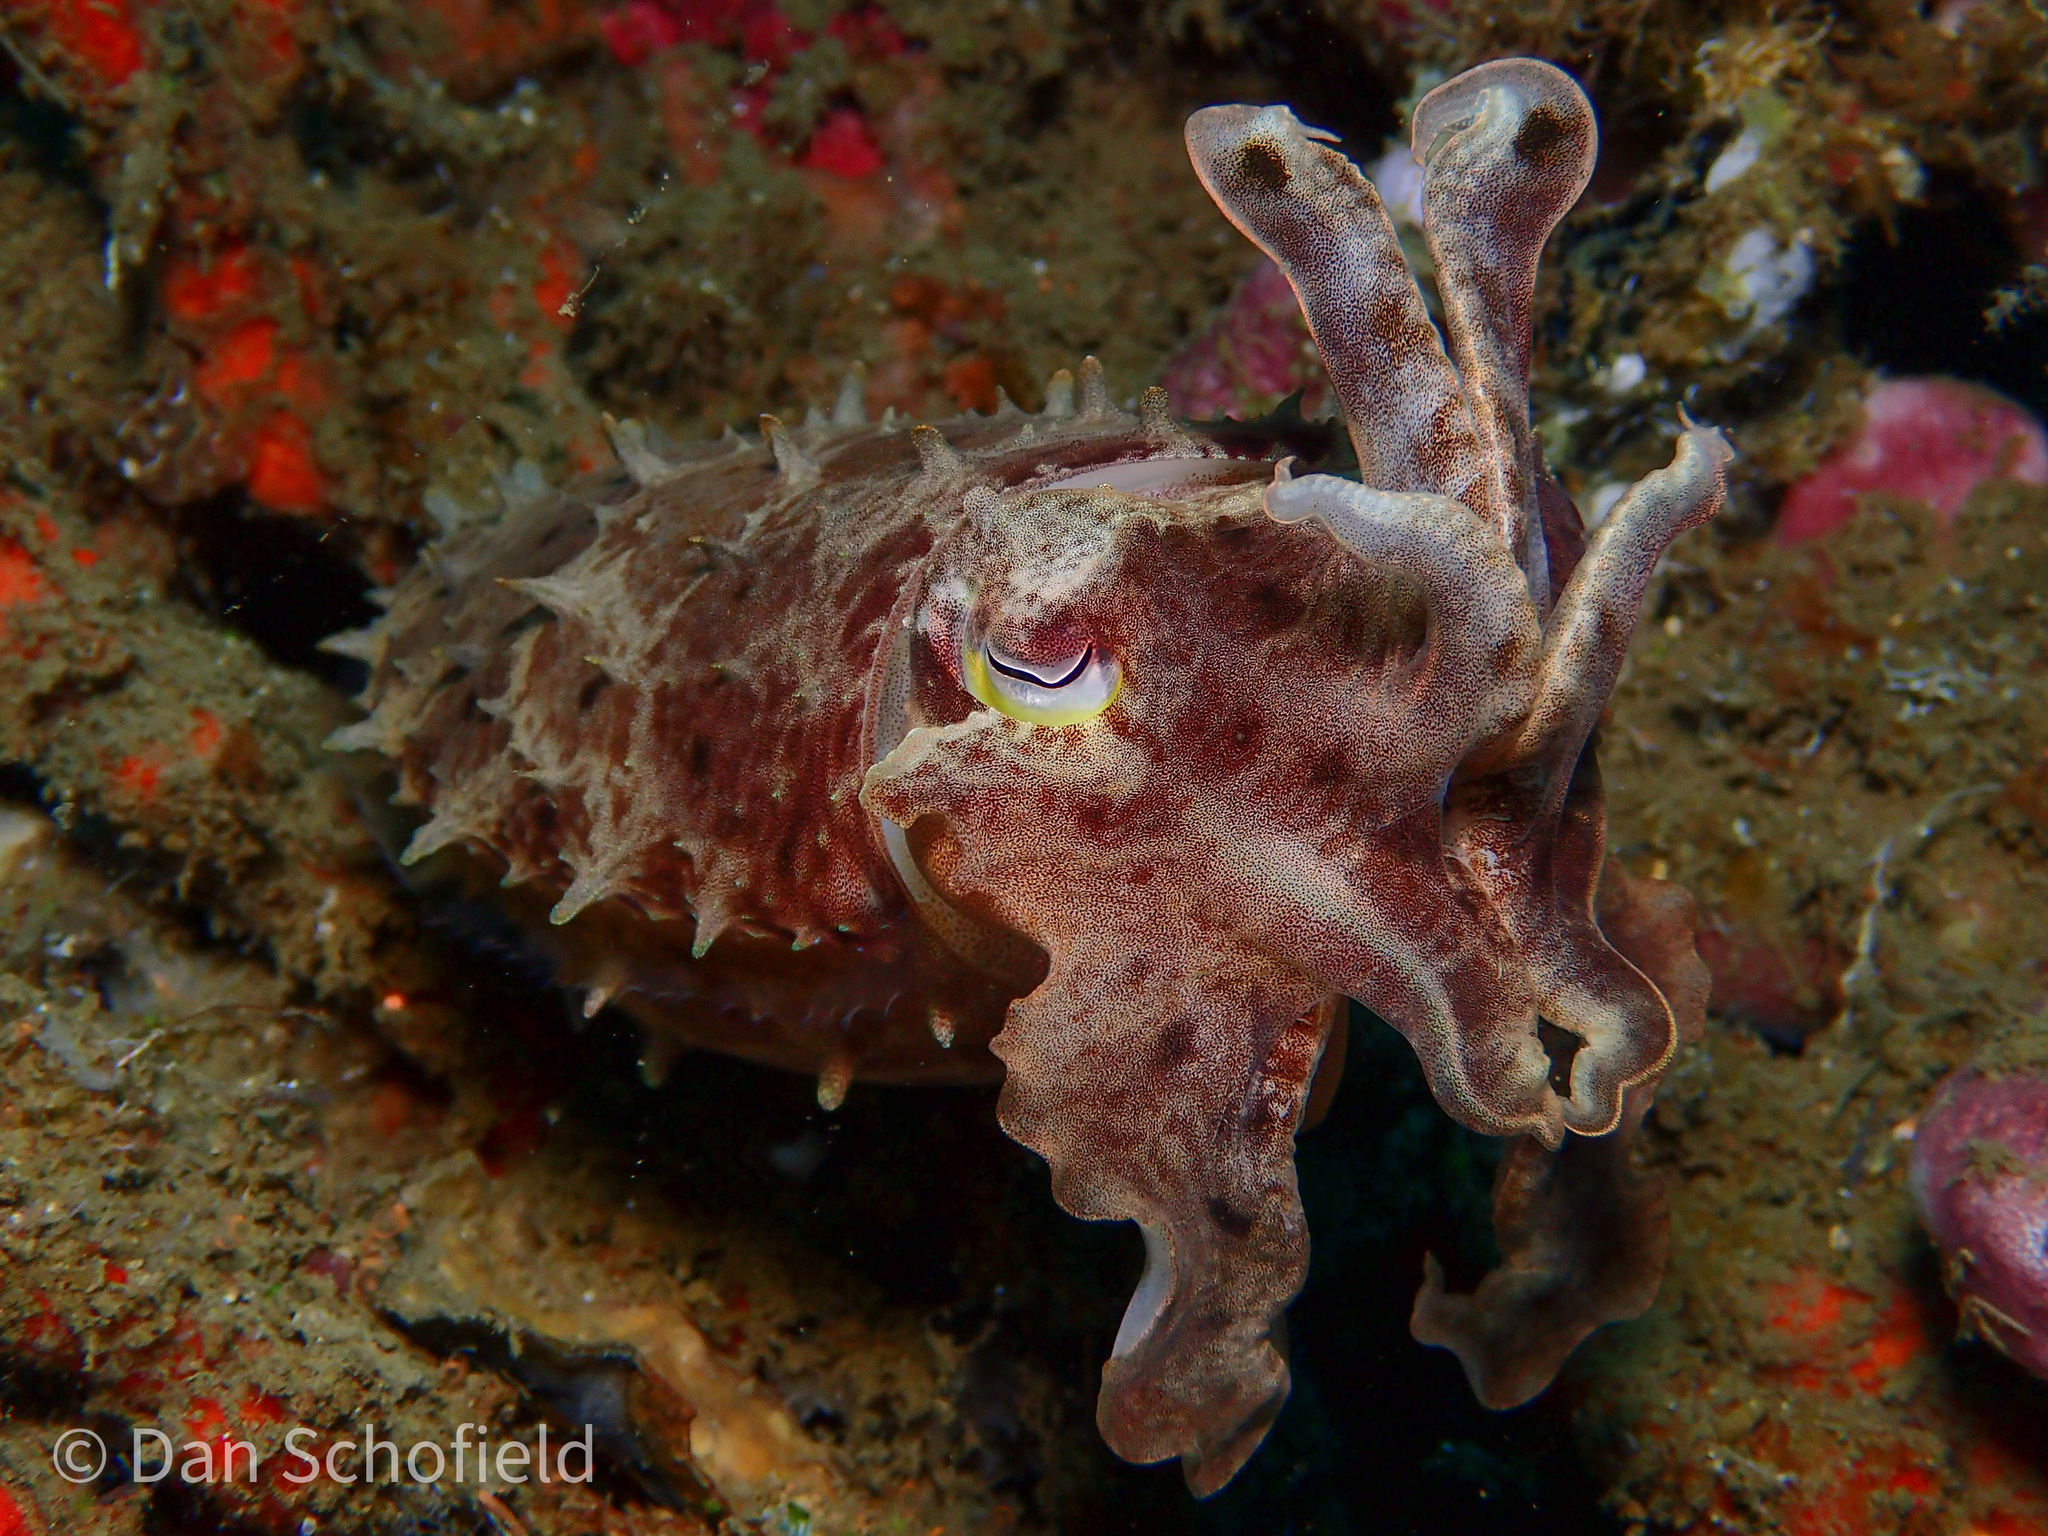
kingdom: Animalia
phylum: Mollusca
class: Cephalopoda
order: Sepiida
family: Sepiidae
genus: Ascarosepion
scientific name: Ascarosepion latimanus
